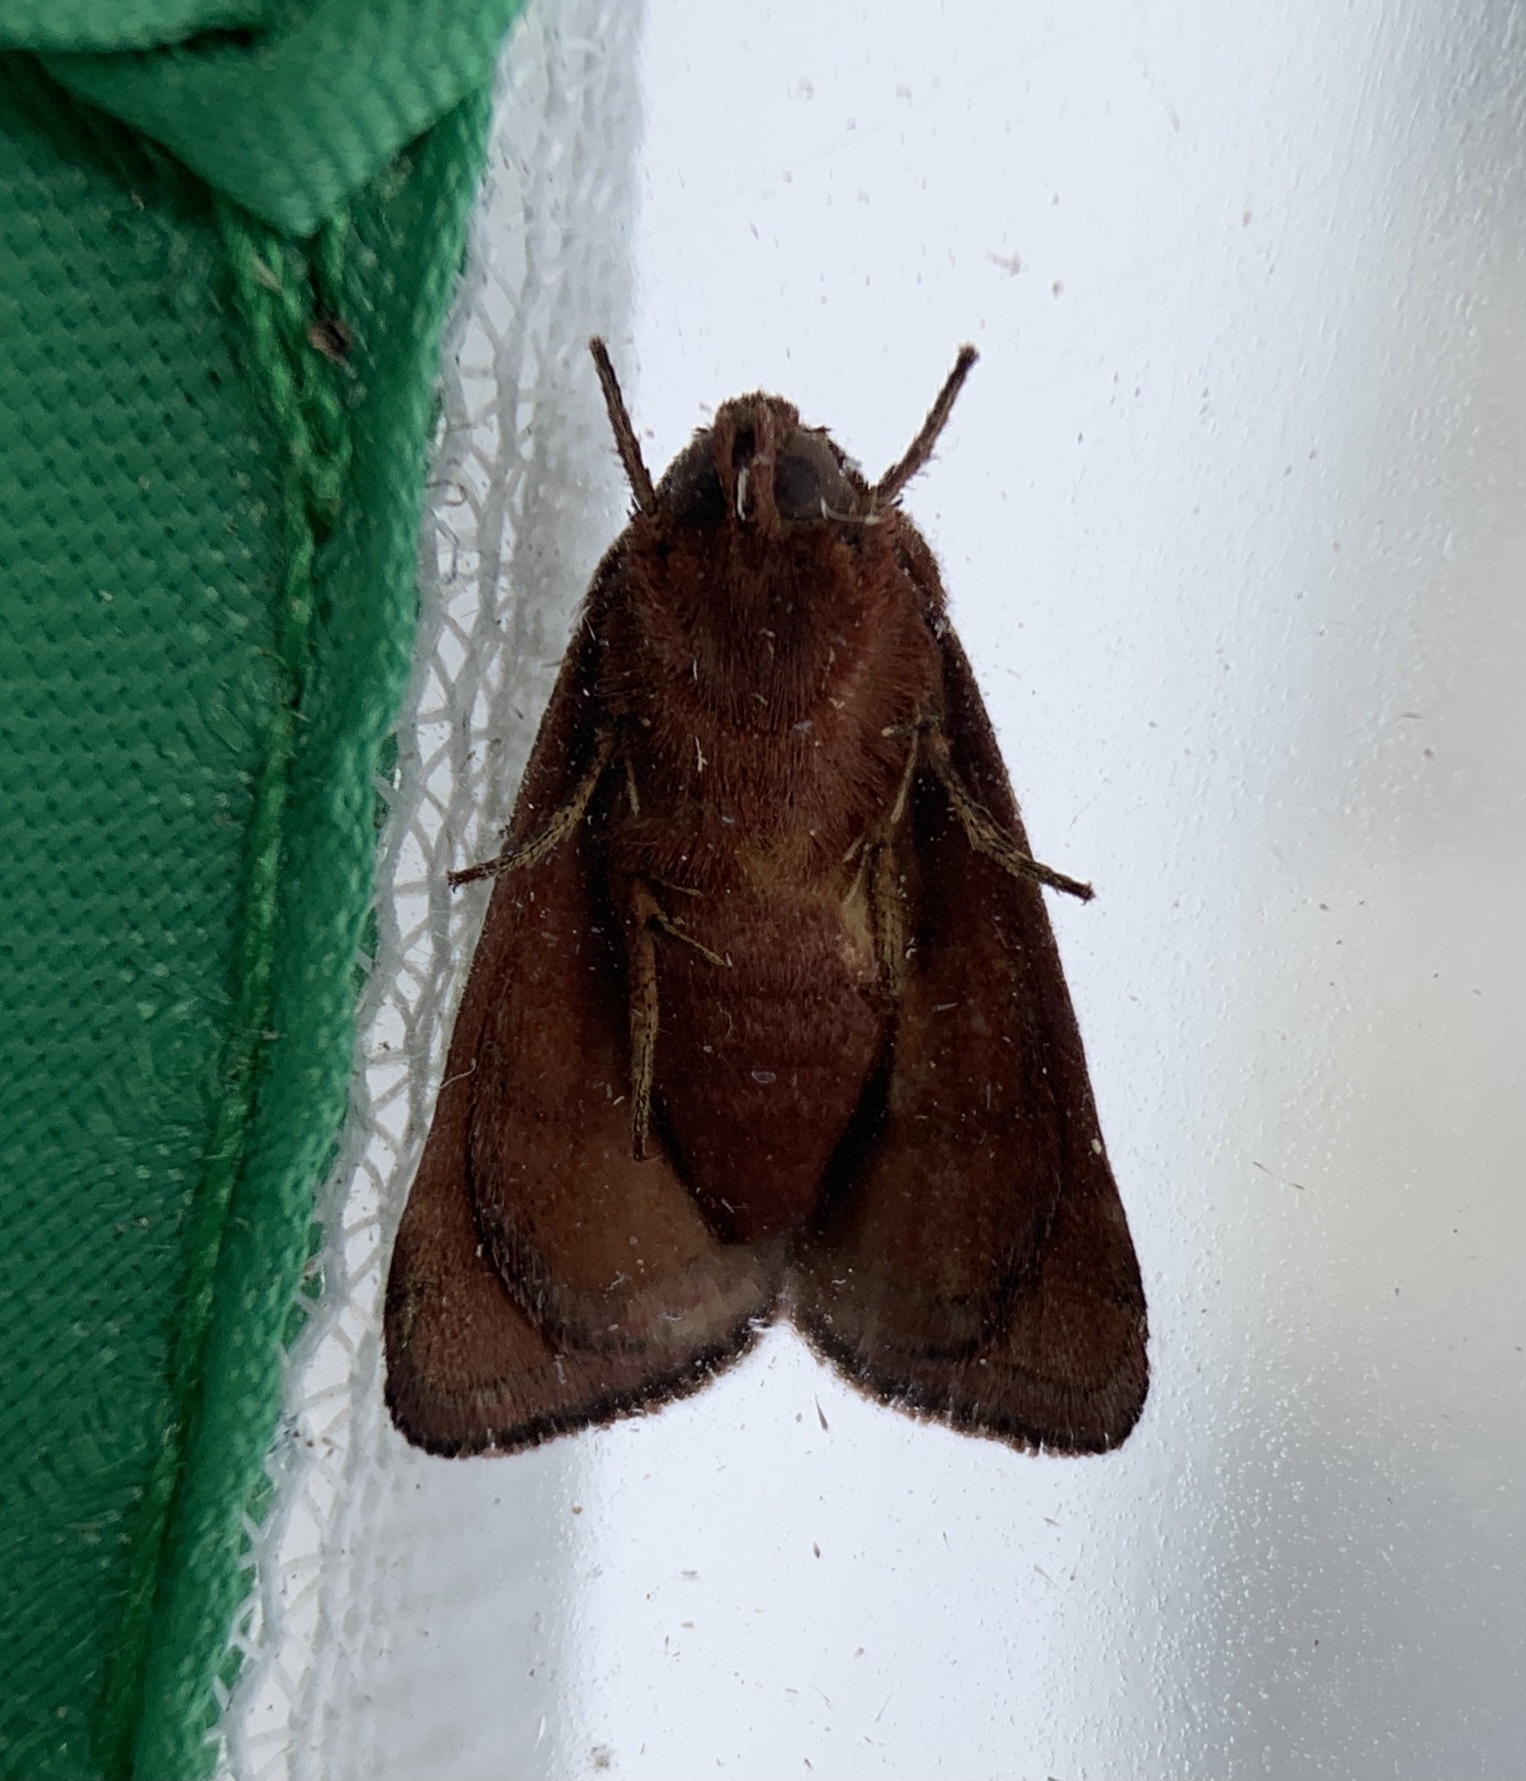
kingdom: Animalia
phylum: Arthropoda
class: Insecta
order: Lepidoptera
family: Noctuidae
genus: Schinia
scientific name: Schinia arcigera
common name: Arcigera flower moth
